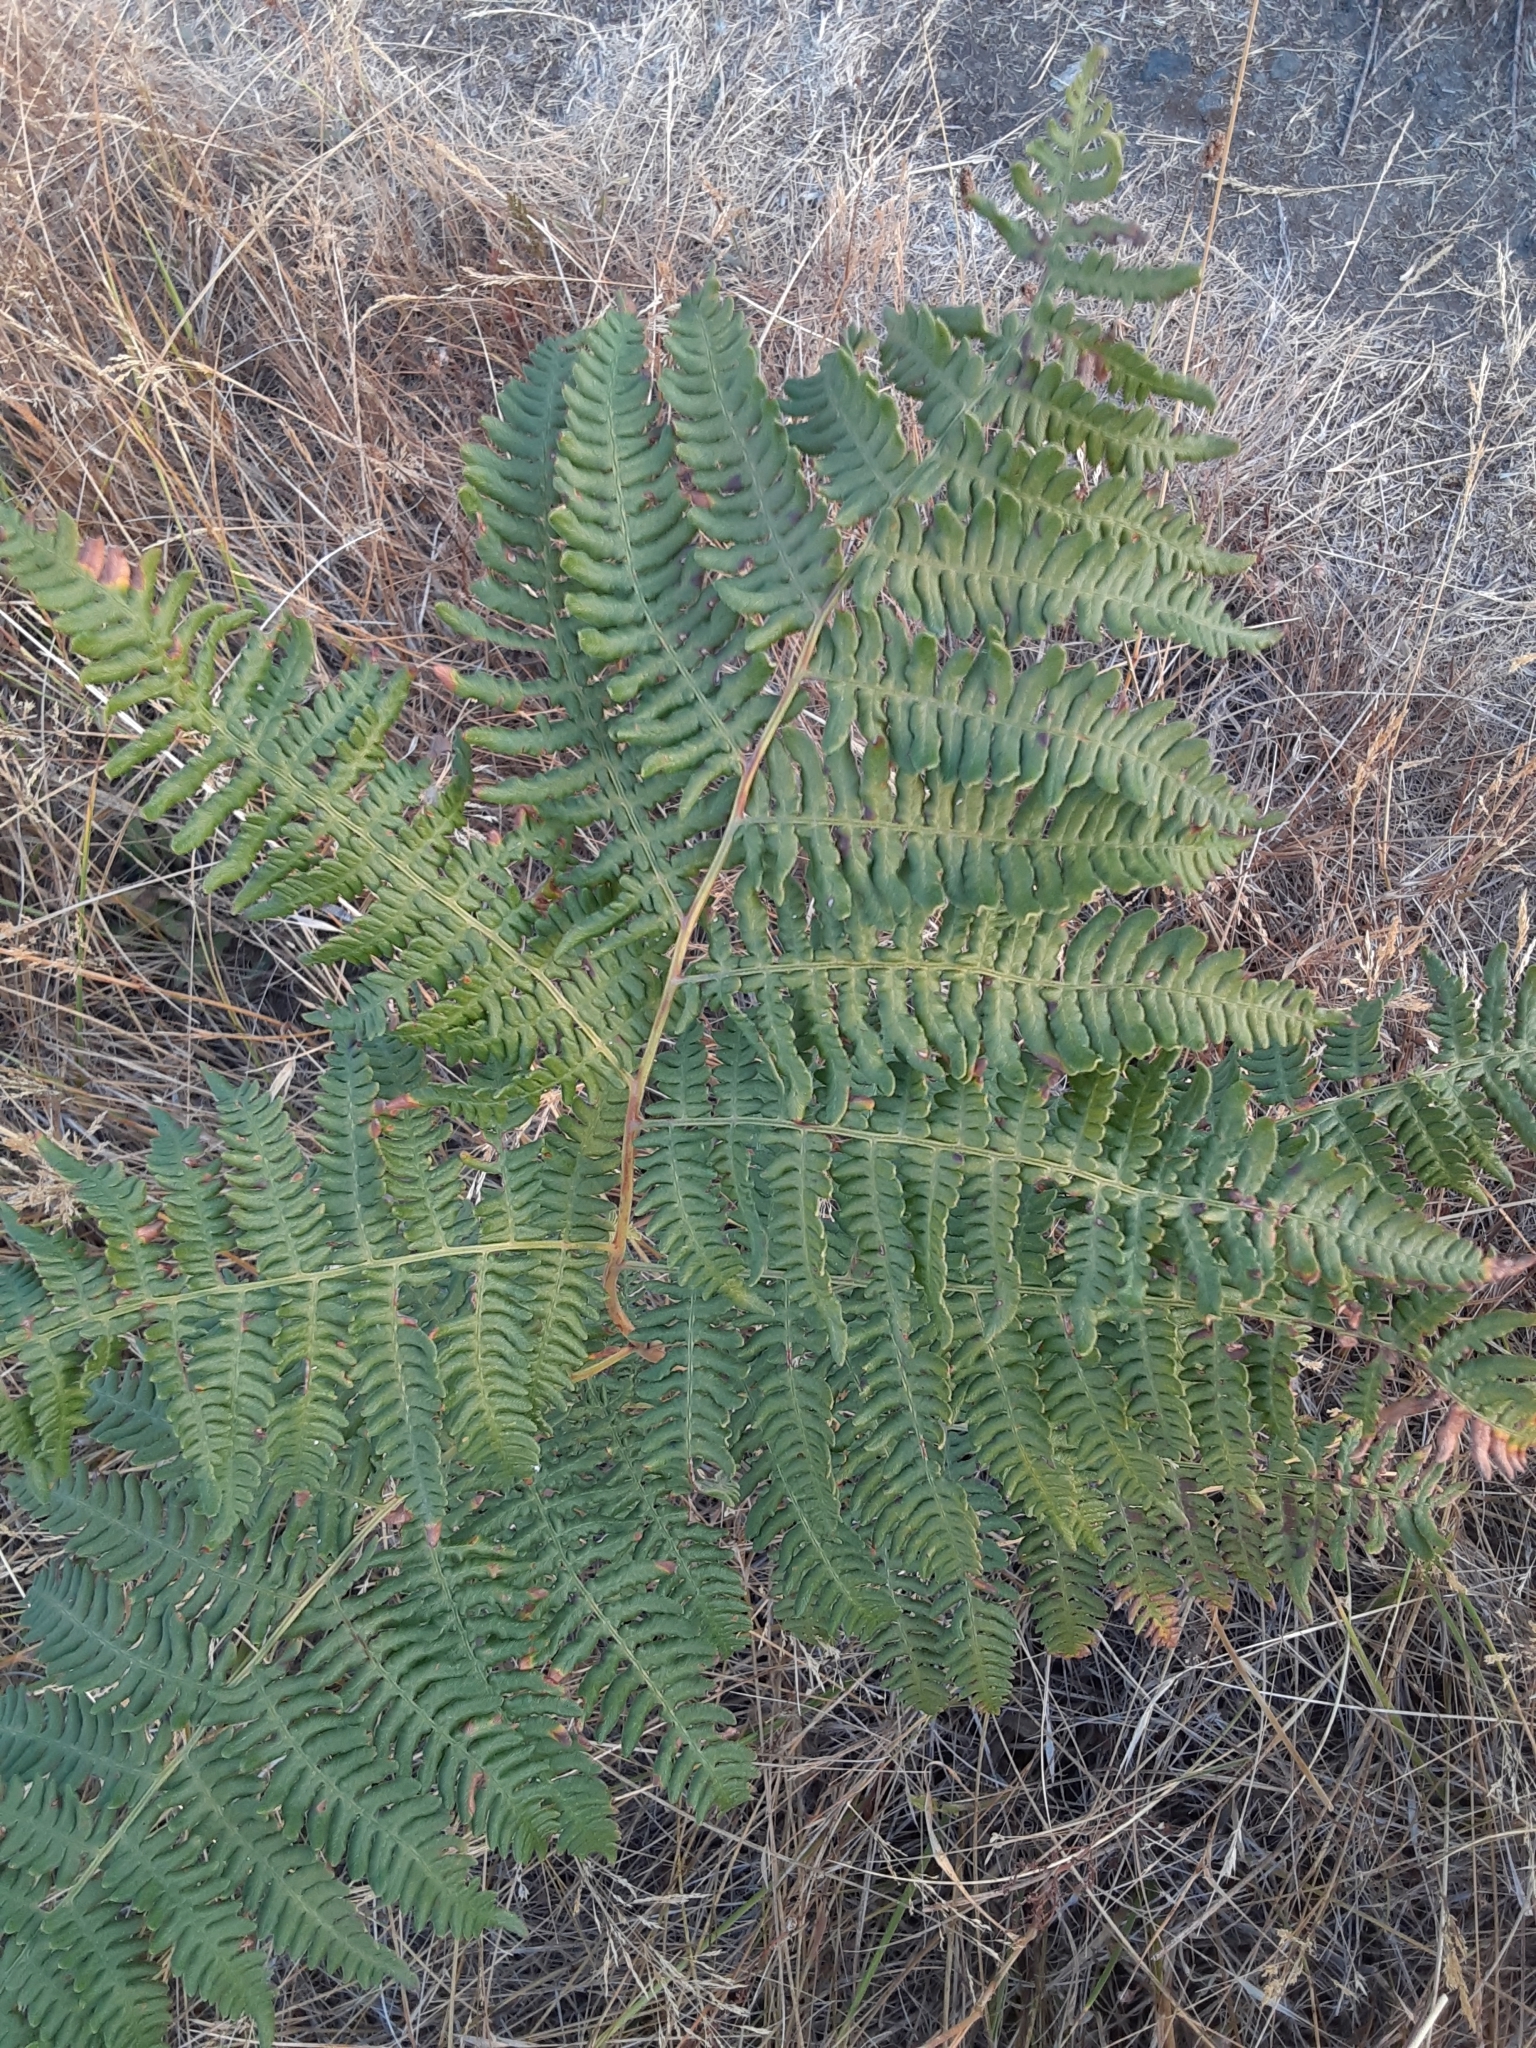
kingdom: Plantae
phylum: Tracheophyta
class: Polypodiopsida
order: Polypodiales
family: Dennstaedtiaceae
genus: Pteridium
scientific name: Pteridium aquilinum
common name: Bracken
